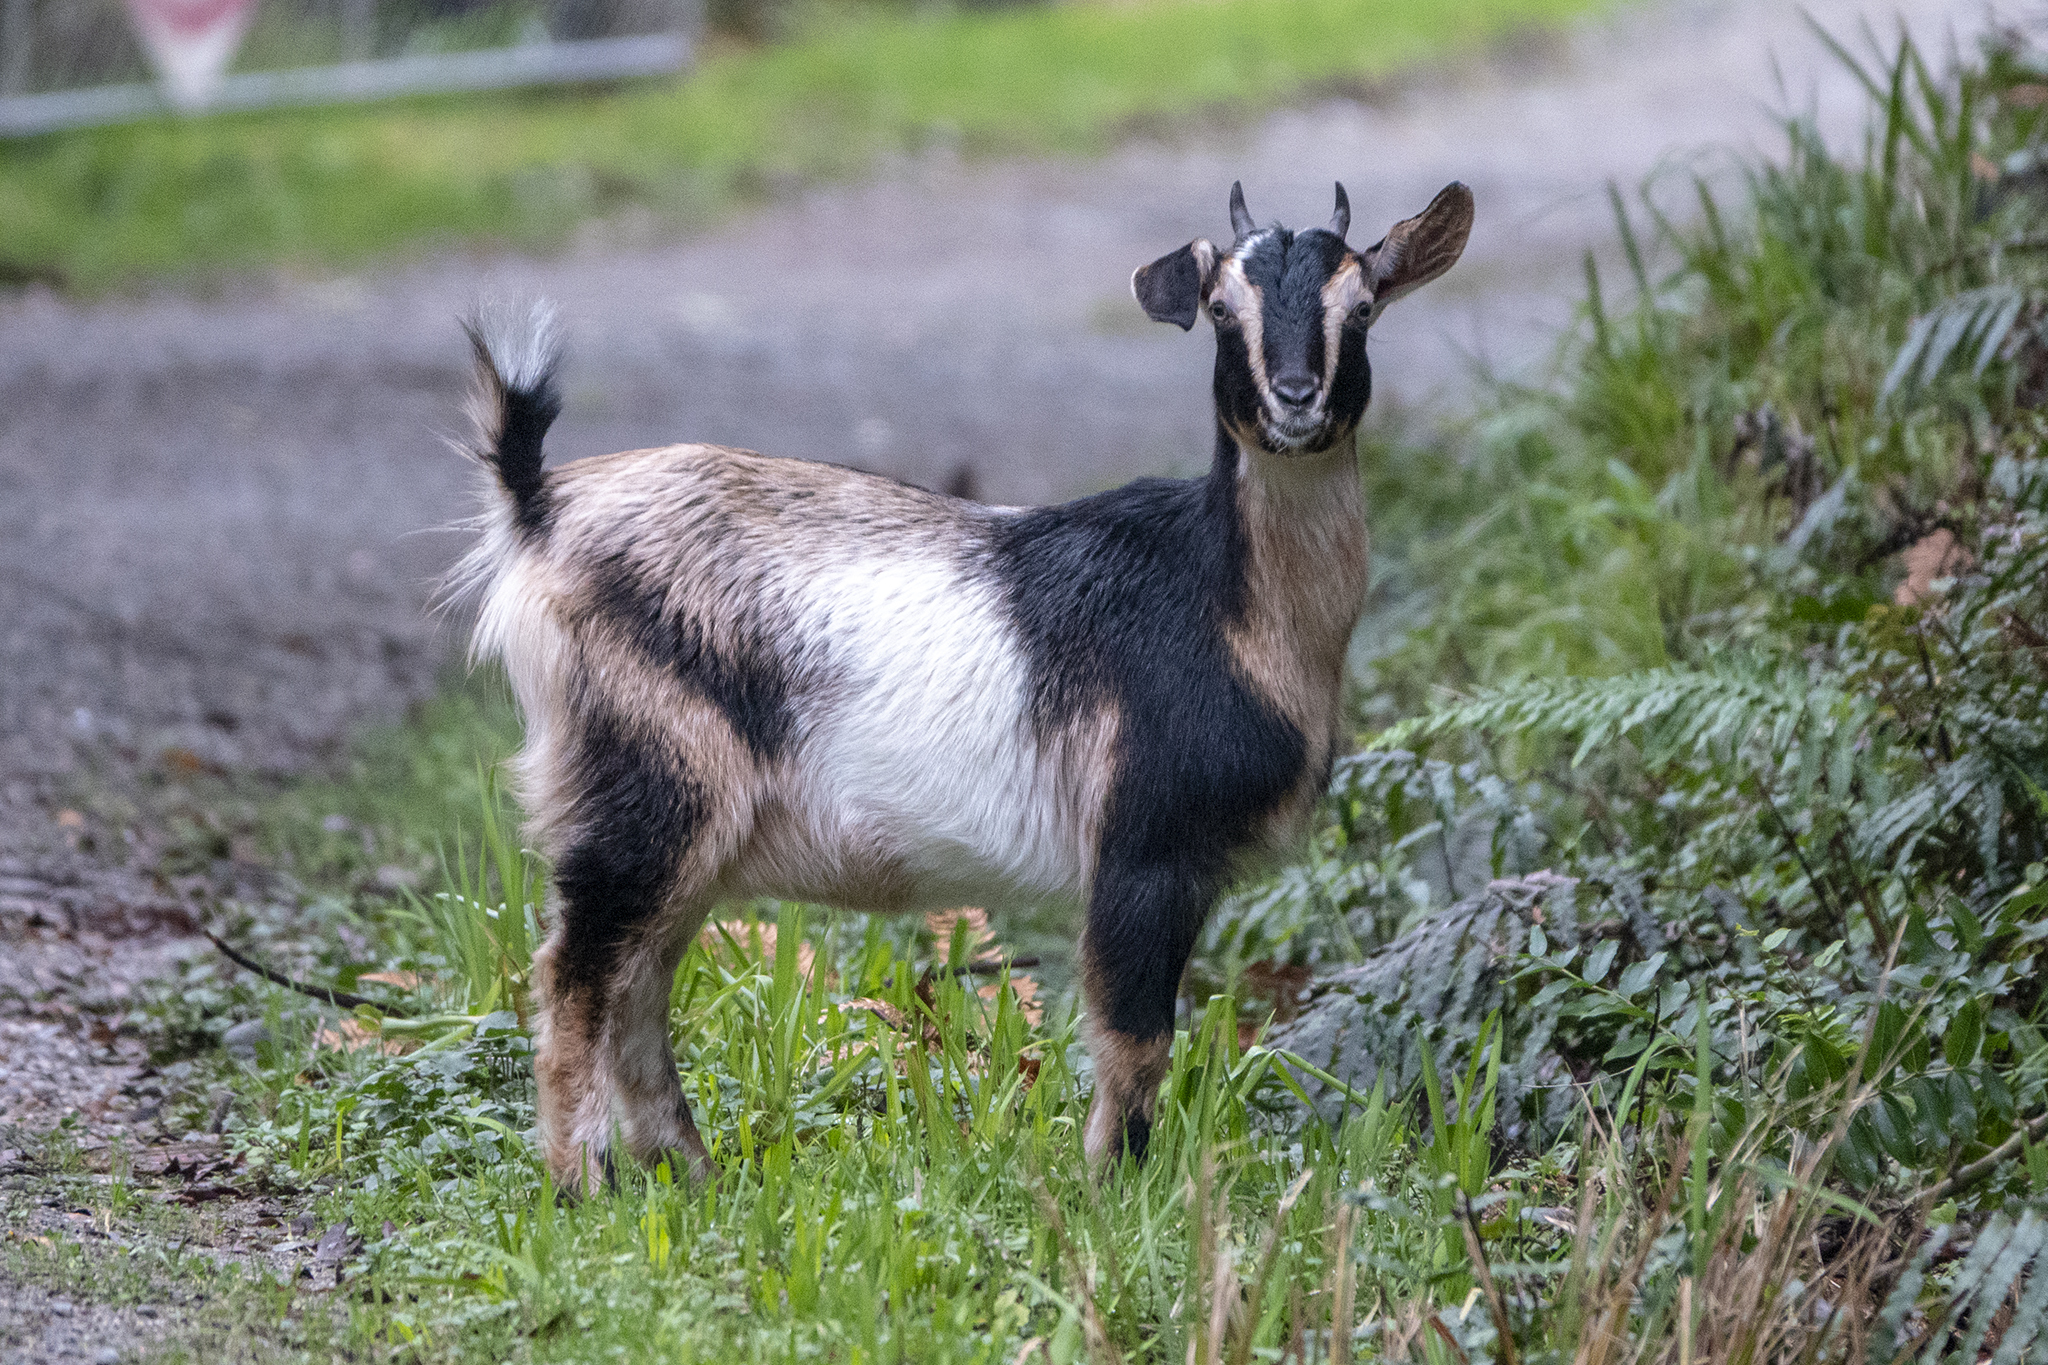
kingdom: Animalia
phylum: Chordata
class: Mammalia
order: Artiodactyla
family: Bovidae
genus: Capra
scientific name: Capra hircus
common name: Domestic goat
